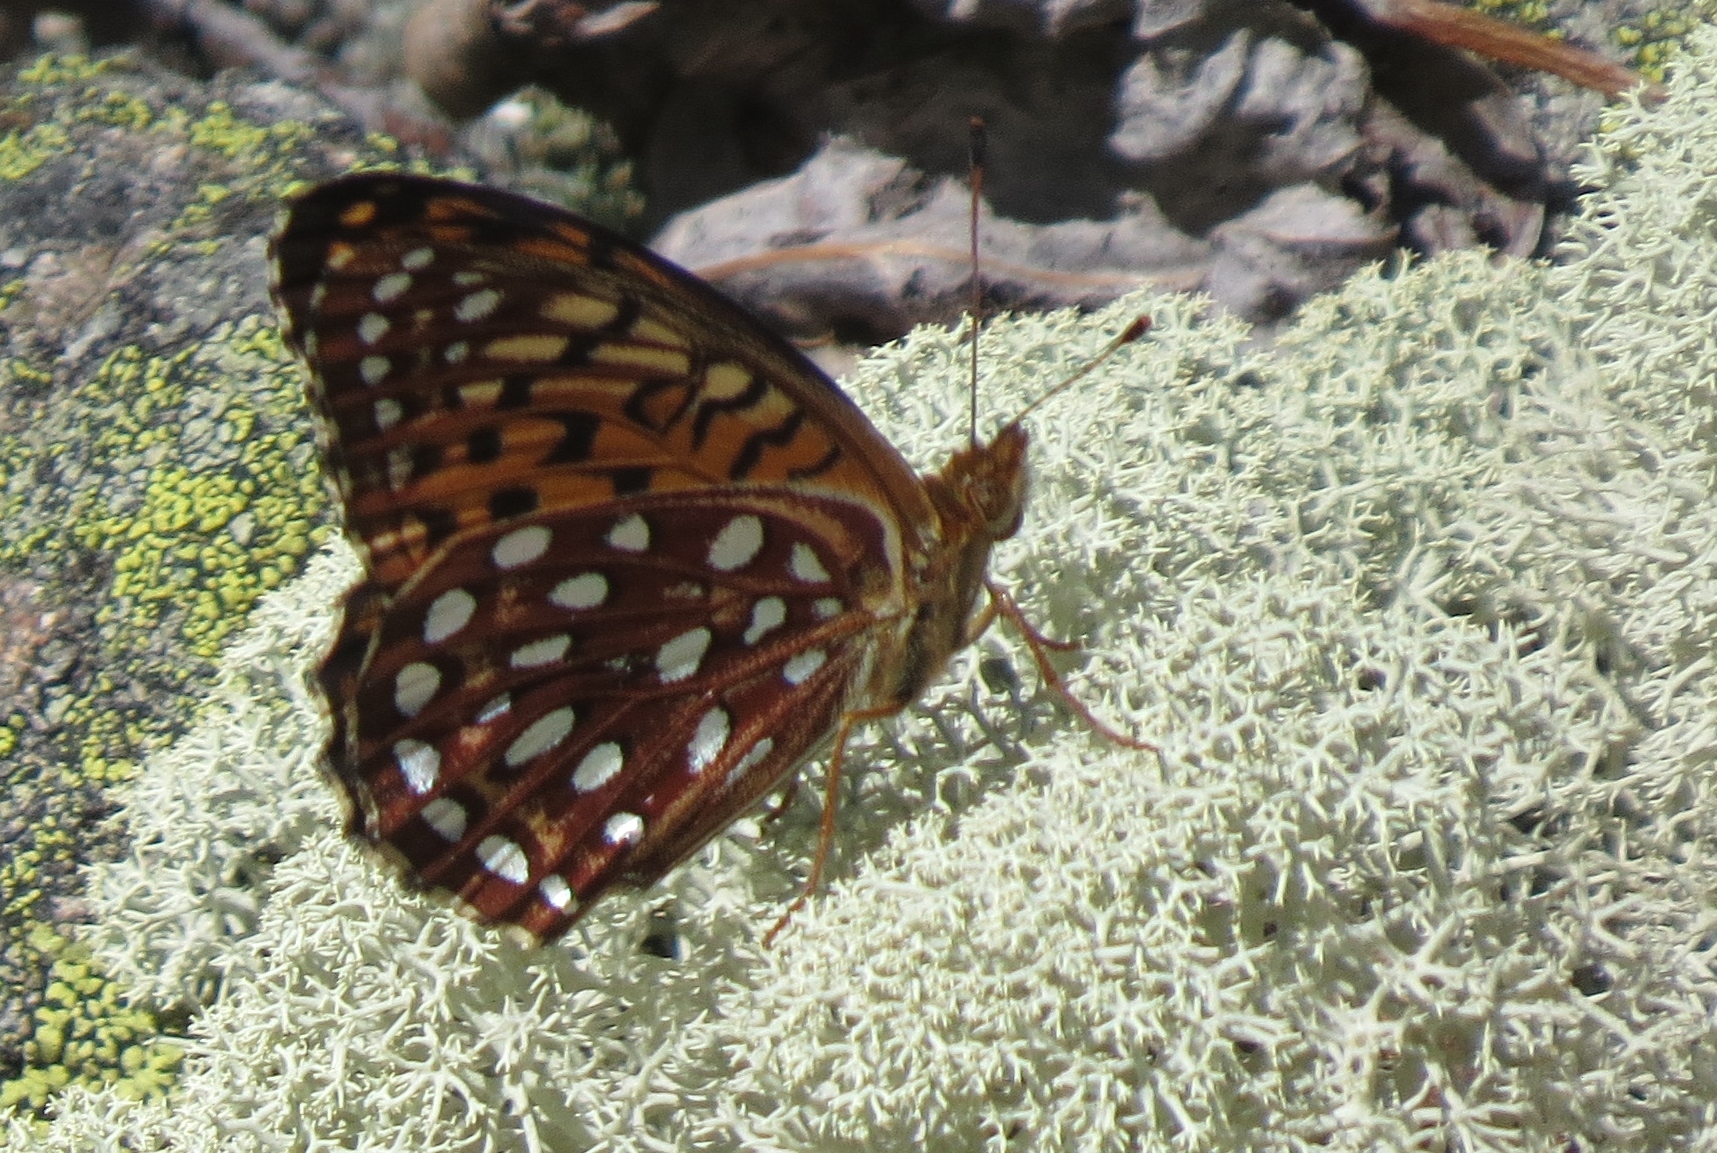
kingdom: Animalia
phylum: Arthropoda
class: Insecta
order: Lepidoptera
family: Nymphalidae
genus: Speyeria
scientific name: Speyeria aphrodite
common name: Aphrodite friitllary
